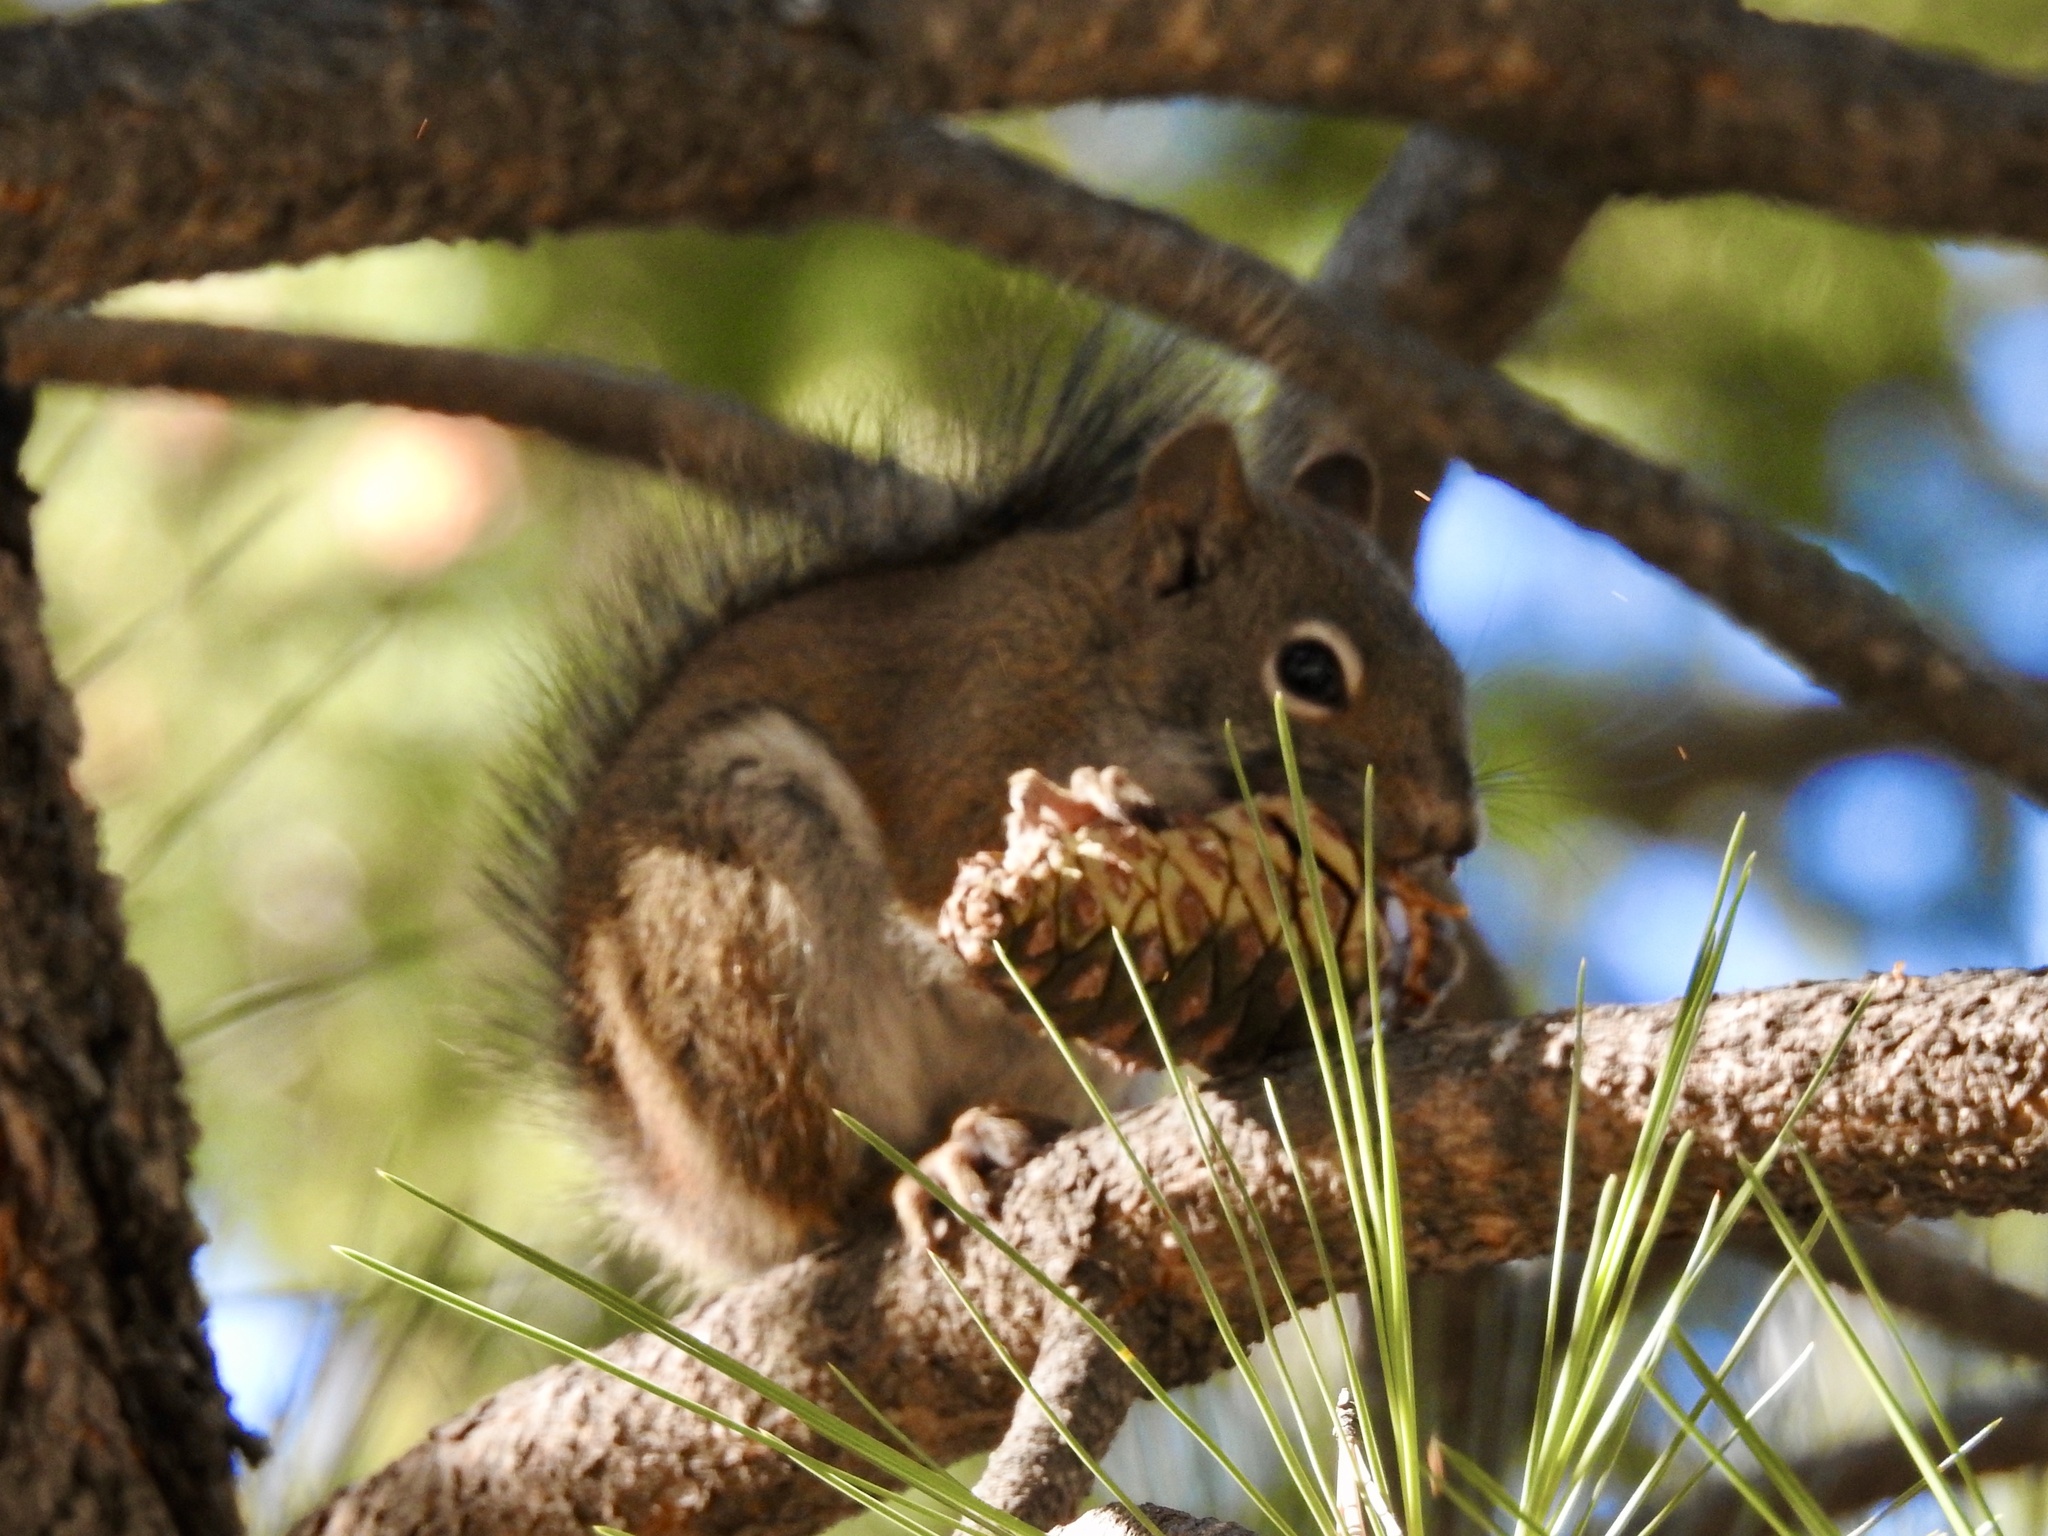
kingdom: Animalia
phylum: Chordata
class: Mammalia
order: Rodentia
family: Sciuridae
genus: Tamiasciurus
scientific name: Tamiasciurus hudsonicus
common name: Red squirrel
